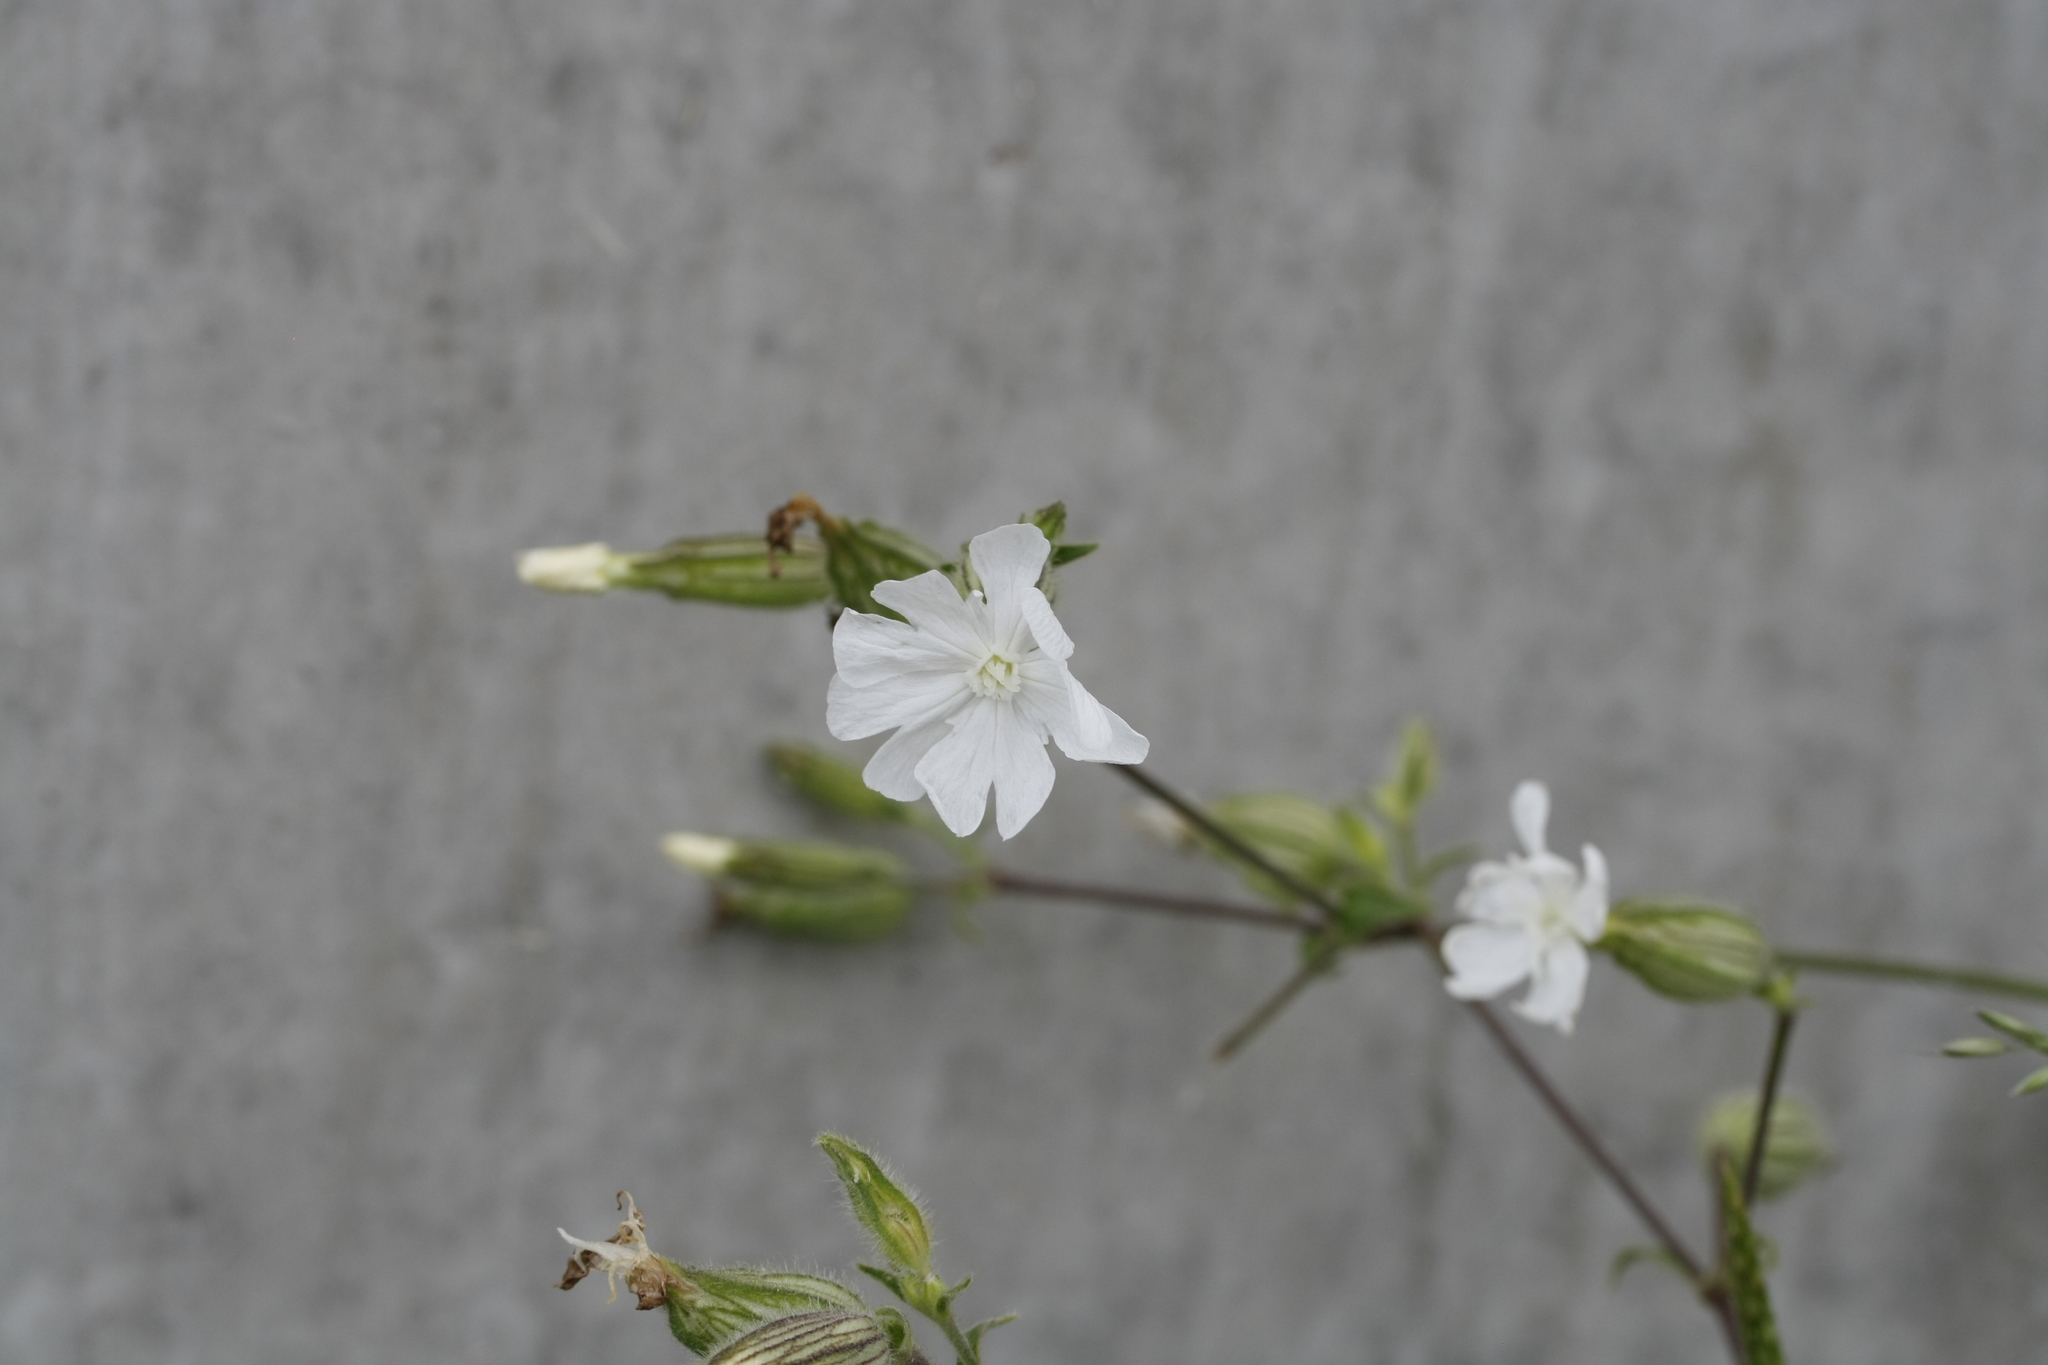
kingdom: Plantae
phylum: Tracheophyta
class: Magnoliopsida
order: Caryophyllales
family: Caryophyllaceae
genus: Silene
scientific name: Silene latifolia
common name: White campion
